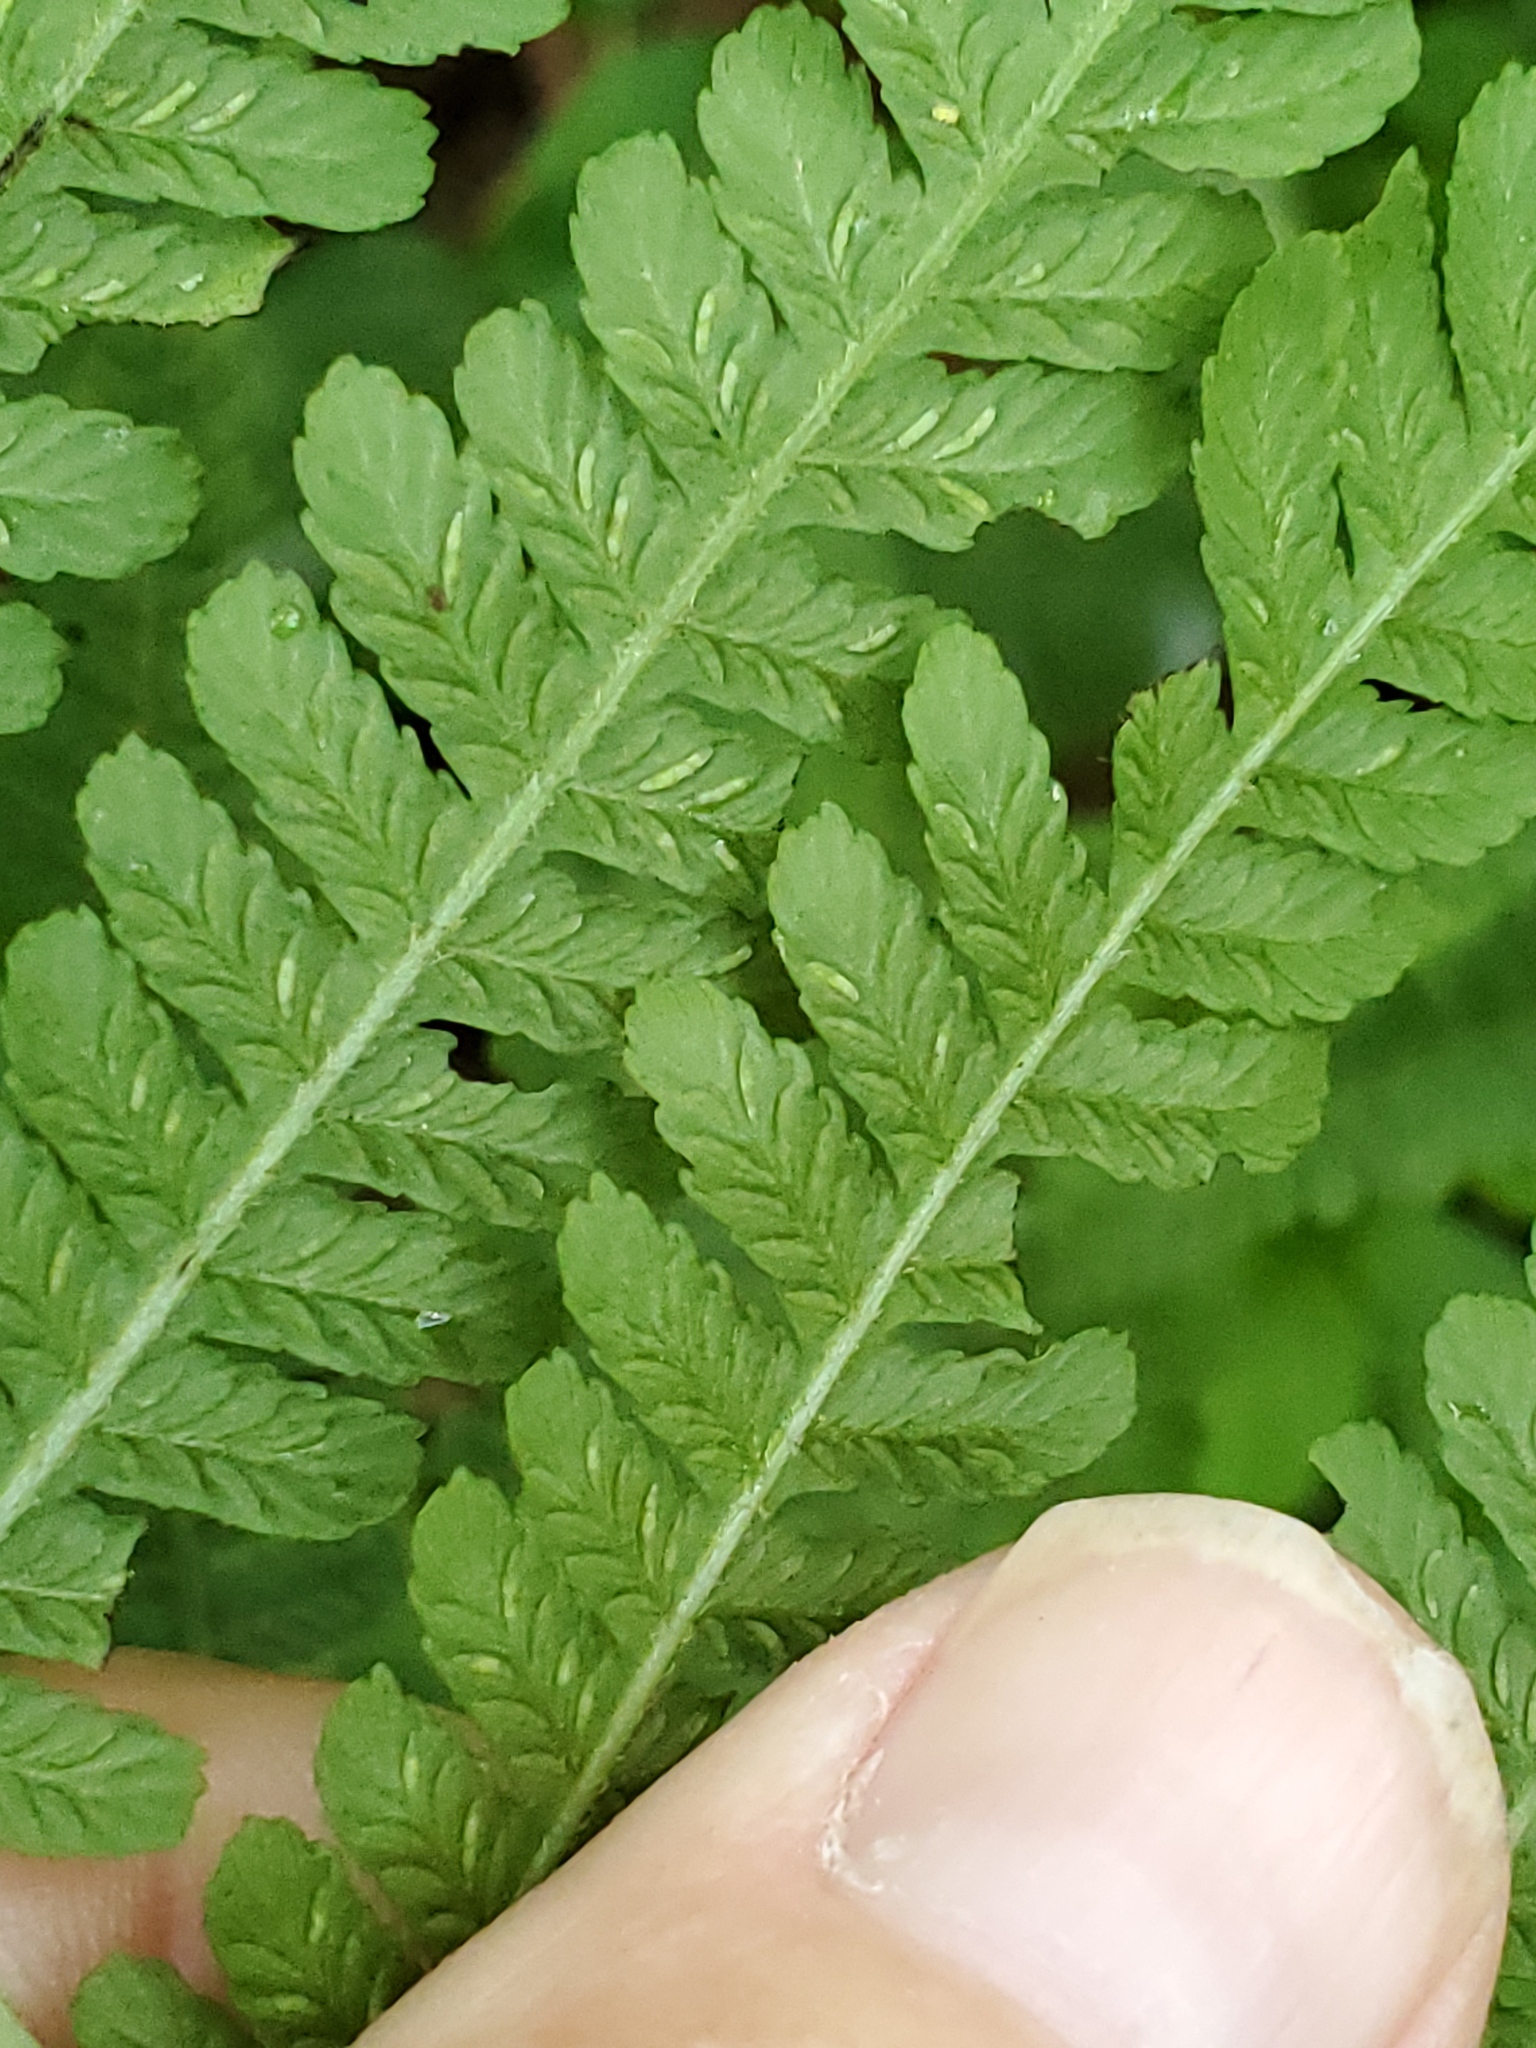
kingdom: Plantae
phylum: Tracheophyta
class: Polypodiopsida
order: Polypodiales
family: Athyriaceae
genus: Deparia
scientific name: Deparia acrostichoides
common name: Silver false spleenwort
